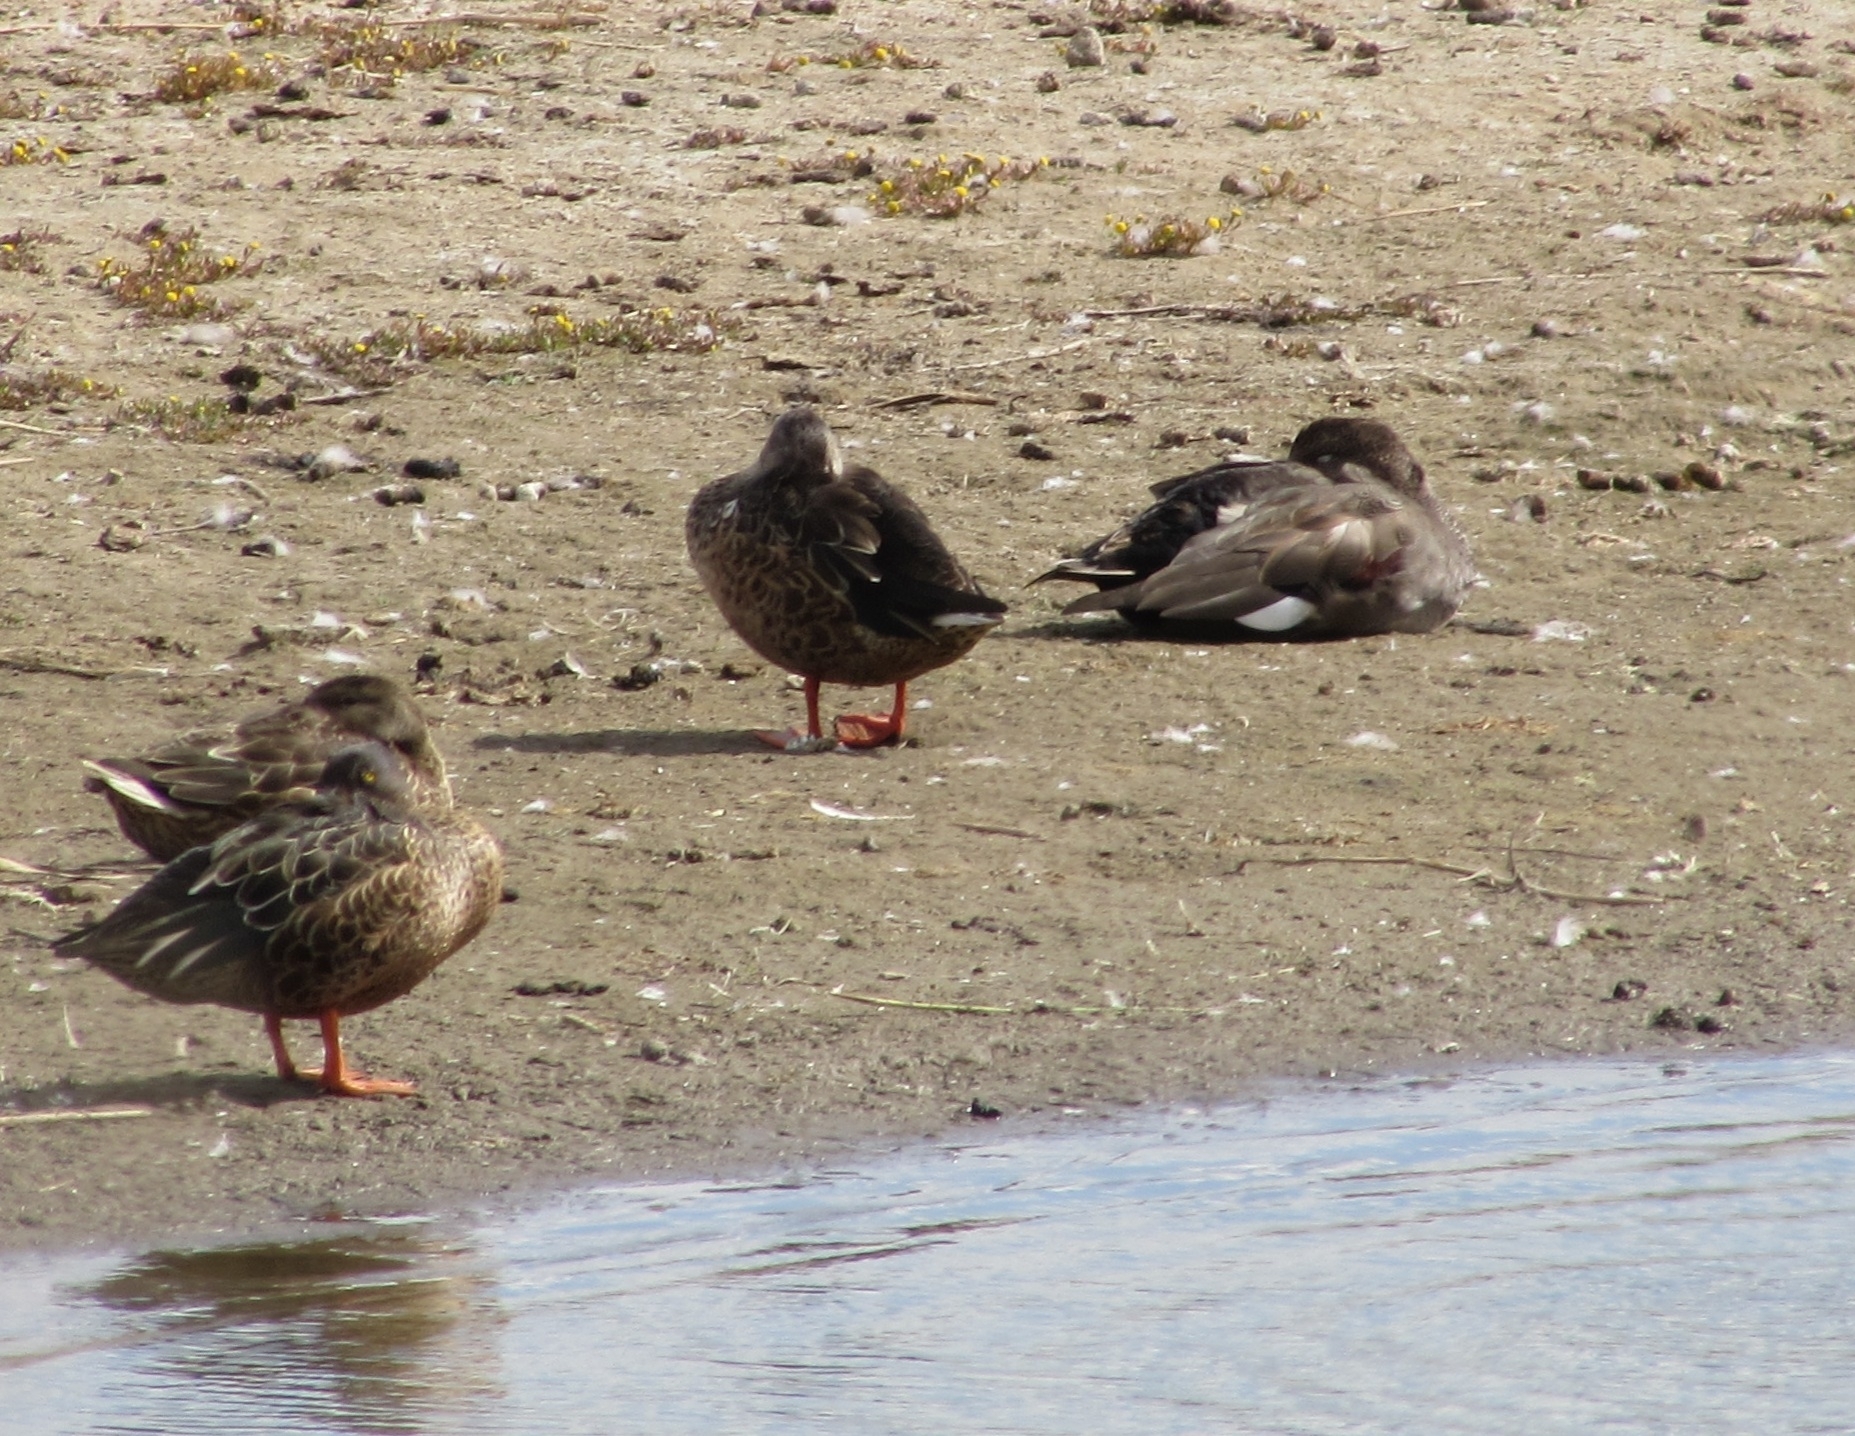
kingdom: Animalia
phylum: Chordata
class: Aves
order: Anseriformes
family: Anatidae
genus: Anas
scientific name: Anas platyrhynchos
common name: Mallard
